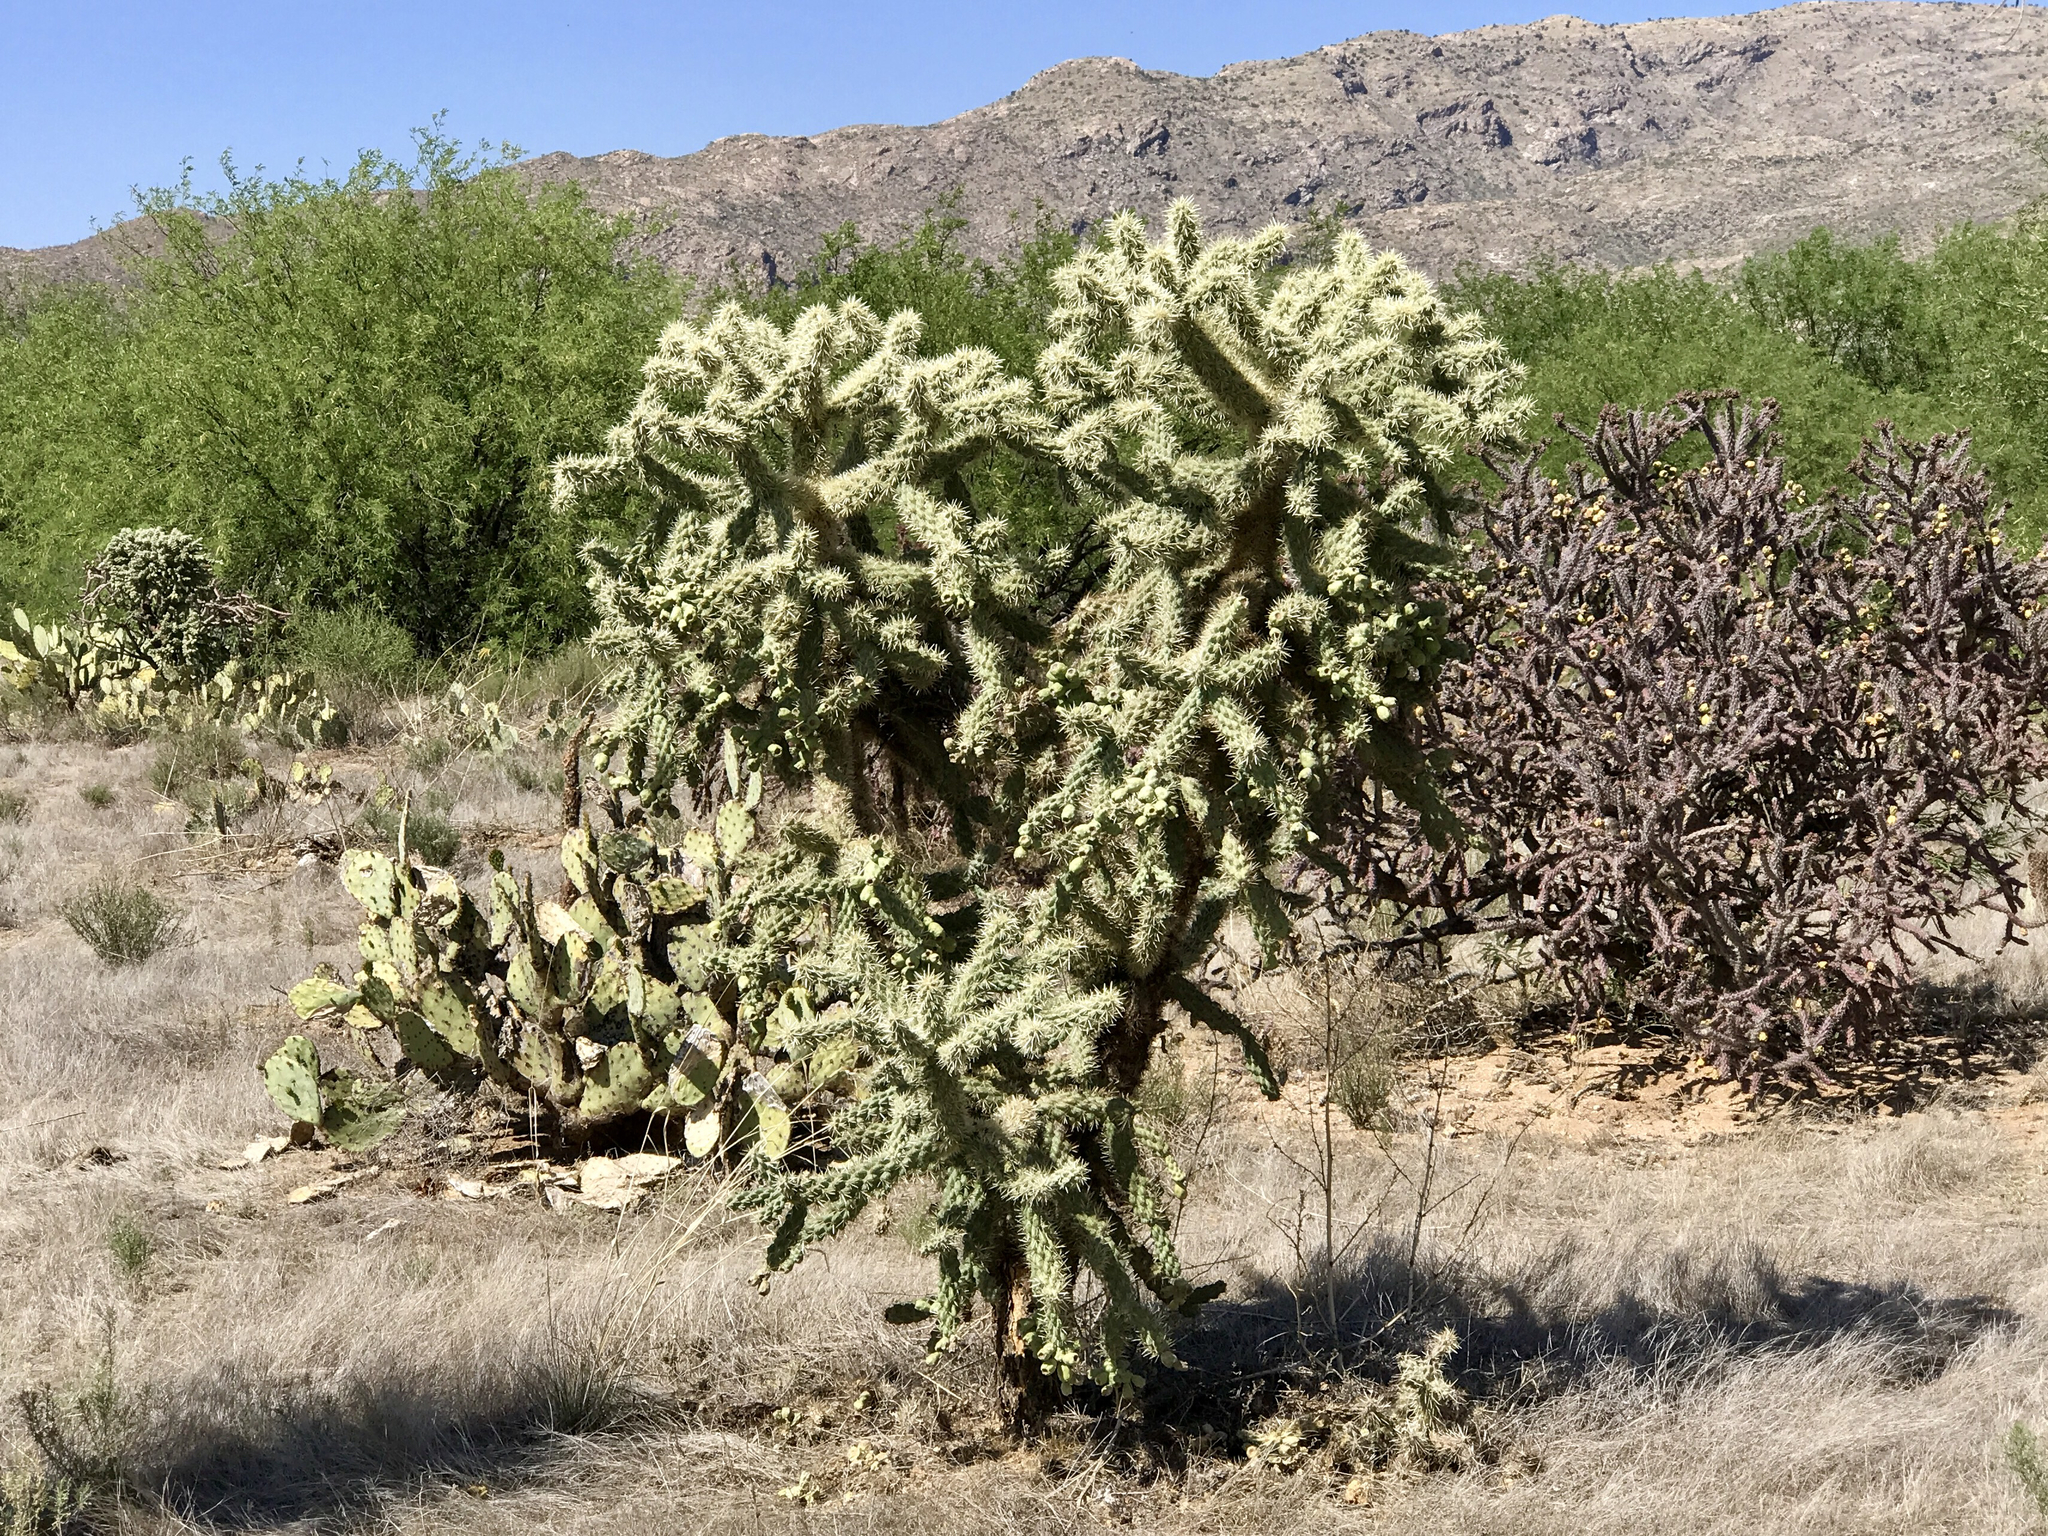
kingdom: Plantae
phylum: Tracheophyta
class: Magnoliopsida
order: Caryophyllales
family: Cactaceae
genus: Cylindropuntia
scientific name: Cylindropuntia fulgida
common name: Jumping cholla
